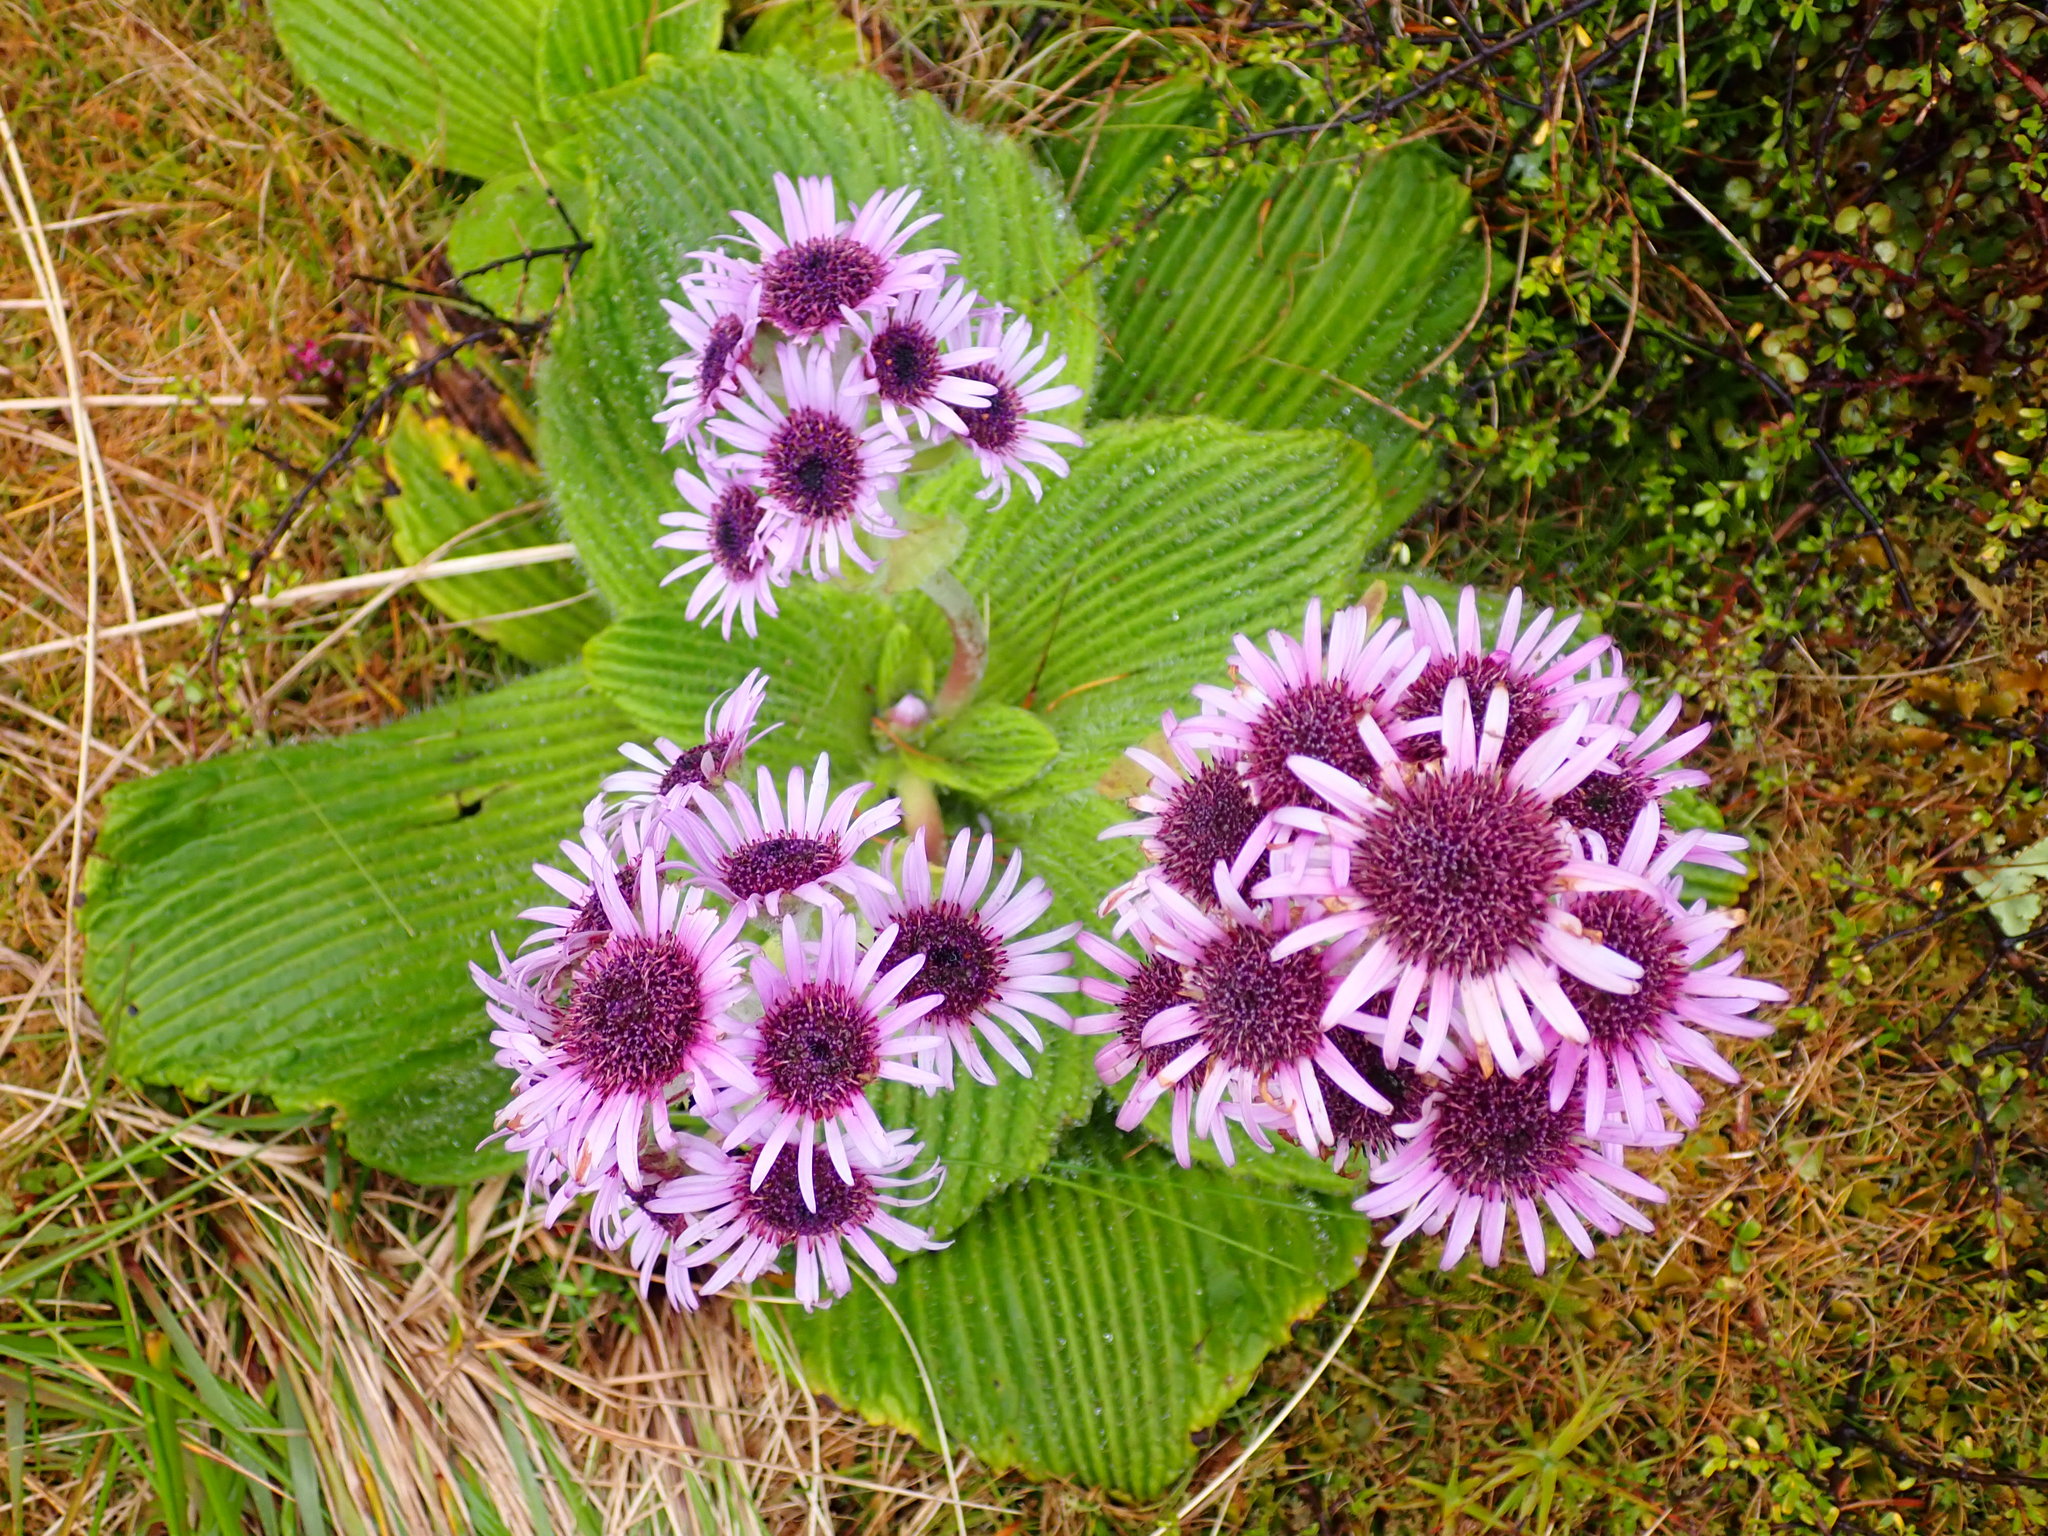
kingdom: Plantae
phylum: Tracheophyta
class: Magnoliopsida
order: Asterales
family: Asteraceae
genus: Pleurophyllum
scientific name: Pleurophyllum speciosum
